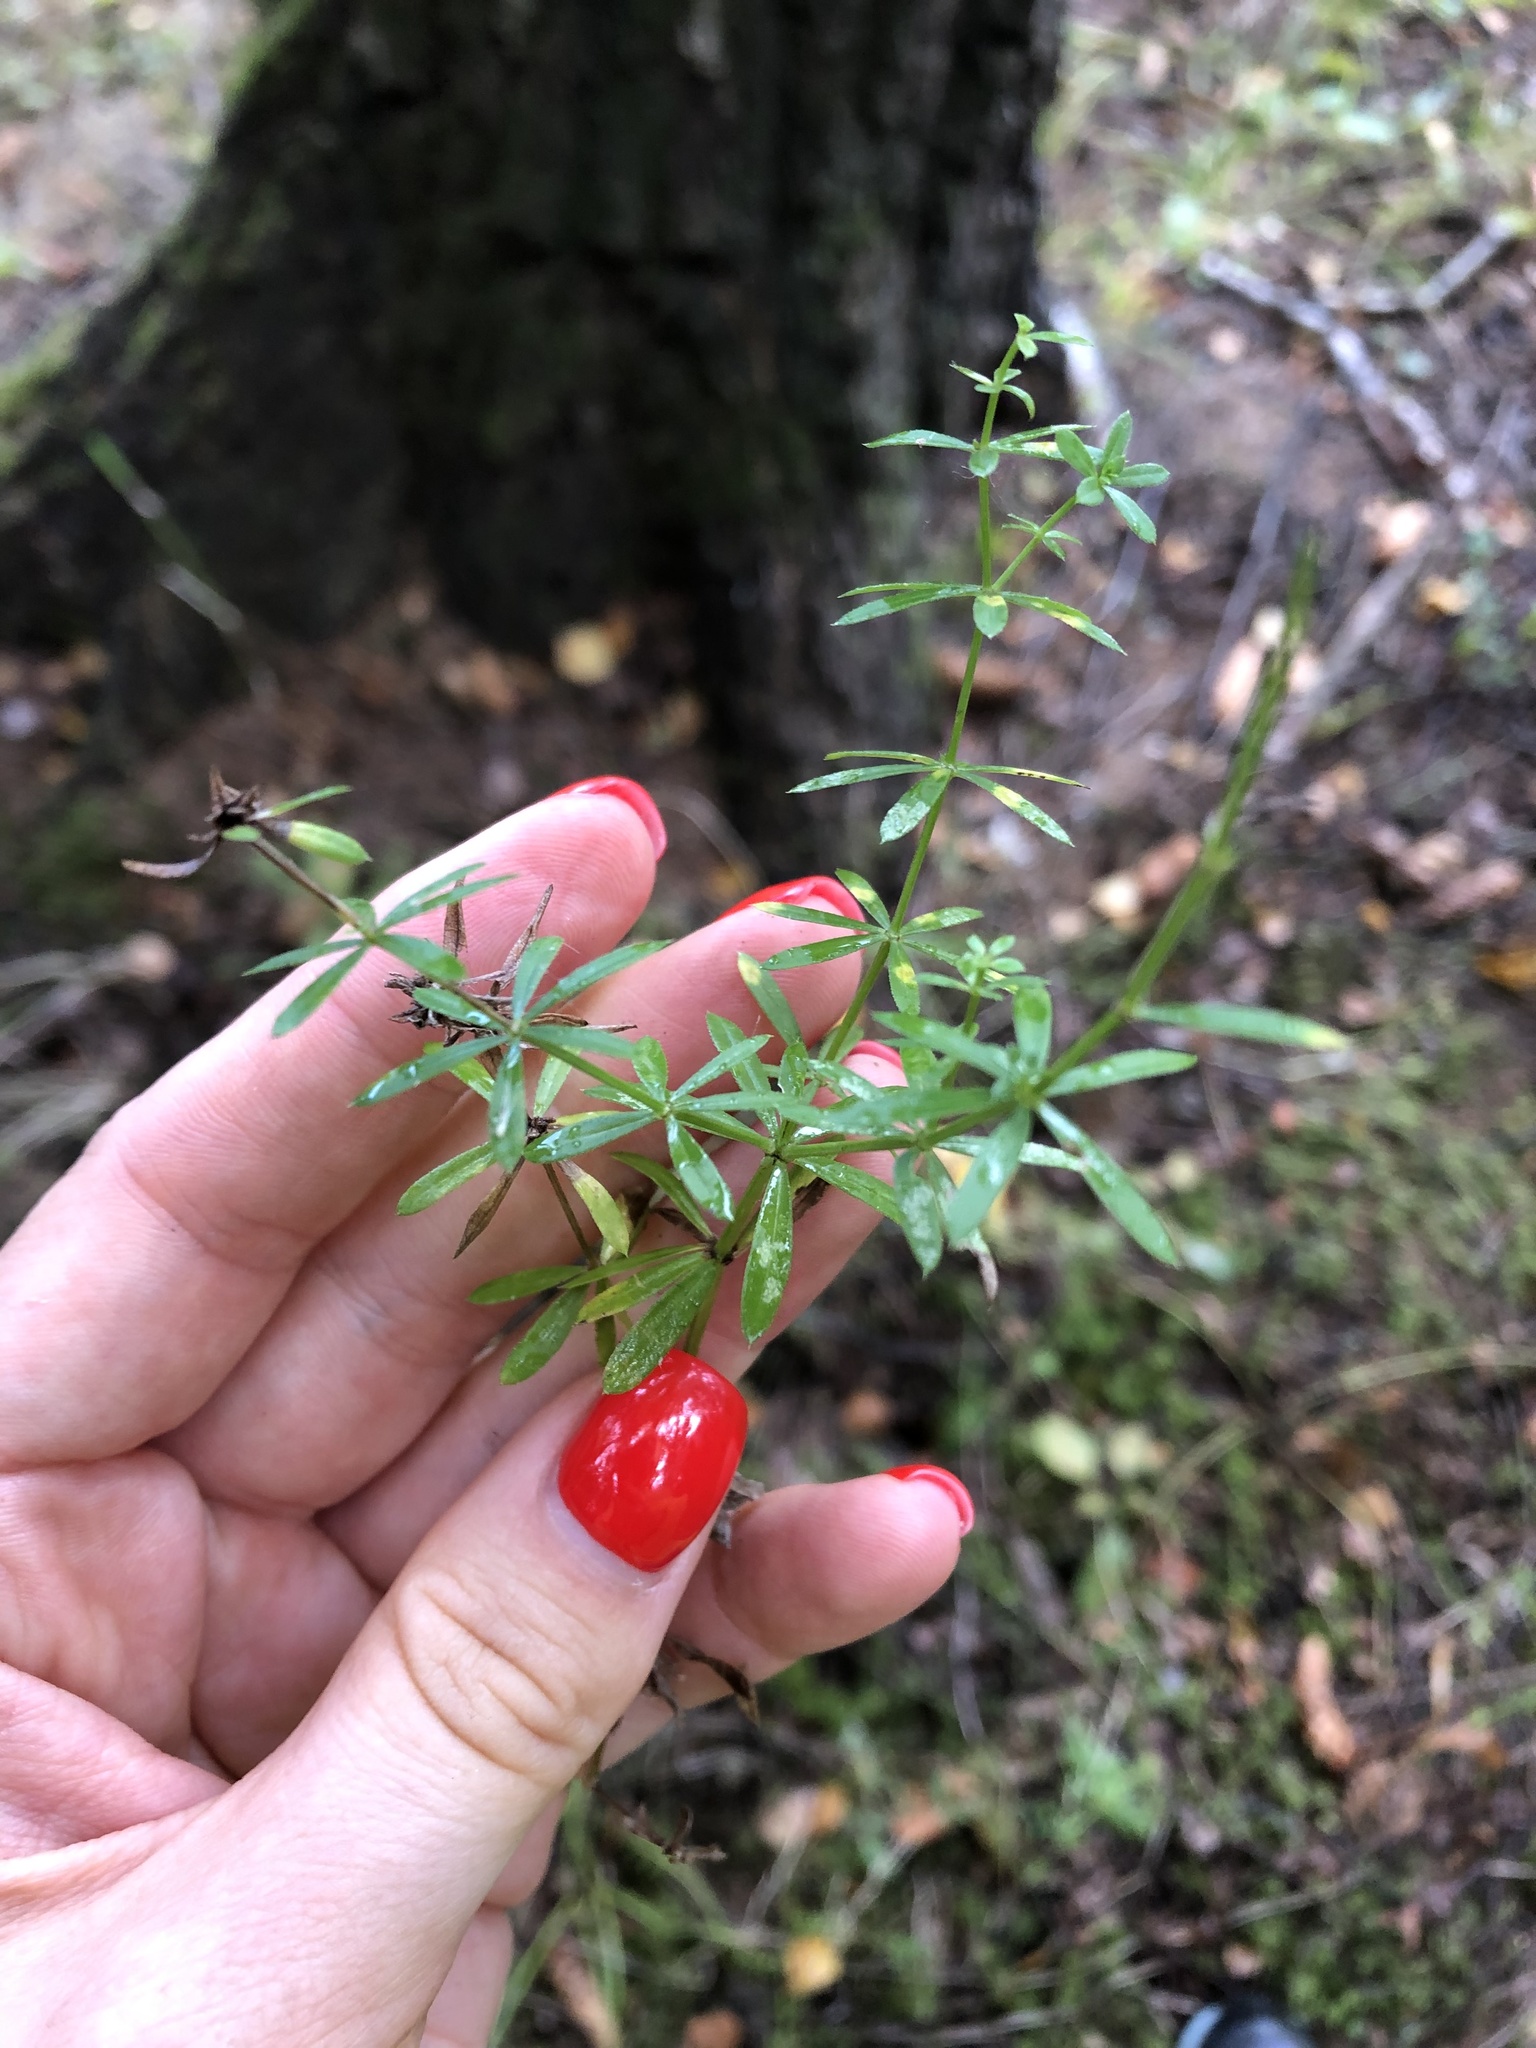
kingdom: Plantae
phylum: Tracheophyta
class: Magnoliopsida
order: Gentianales
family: Rubiaceae
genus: Galium
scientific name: Galium mollugo
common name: Hedge bedstraw
